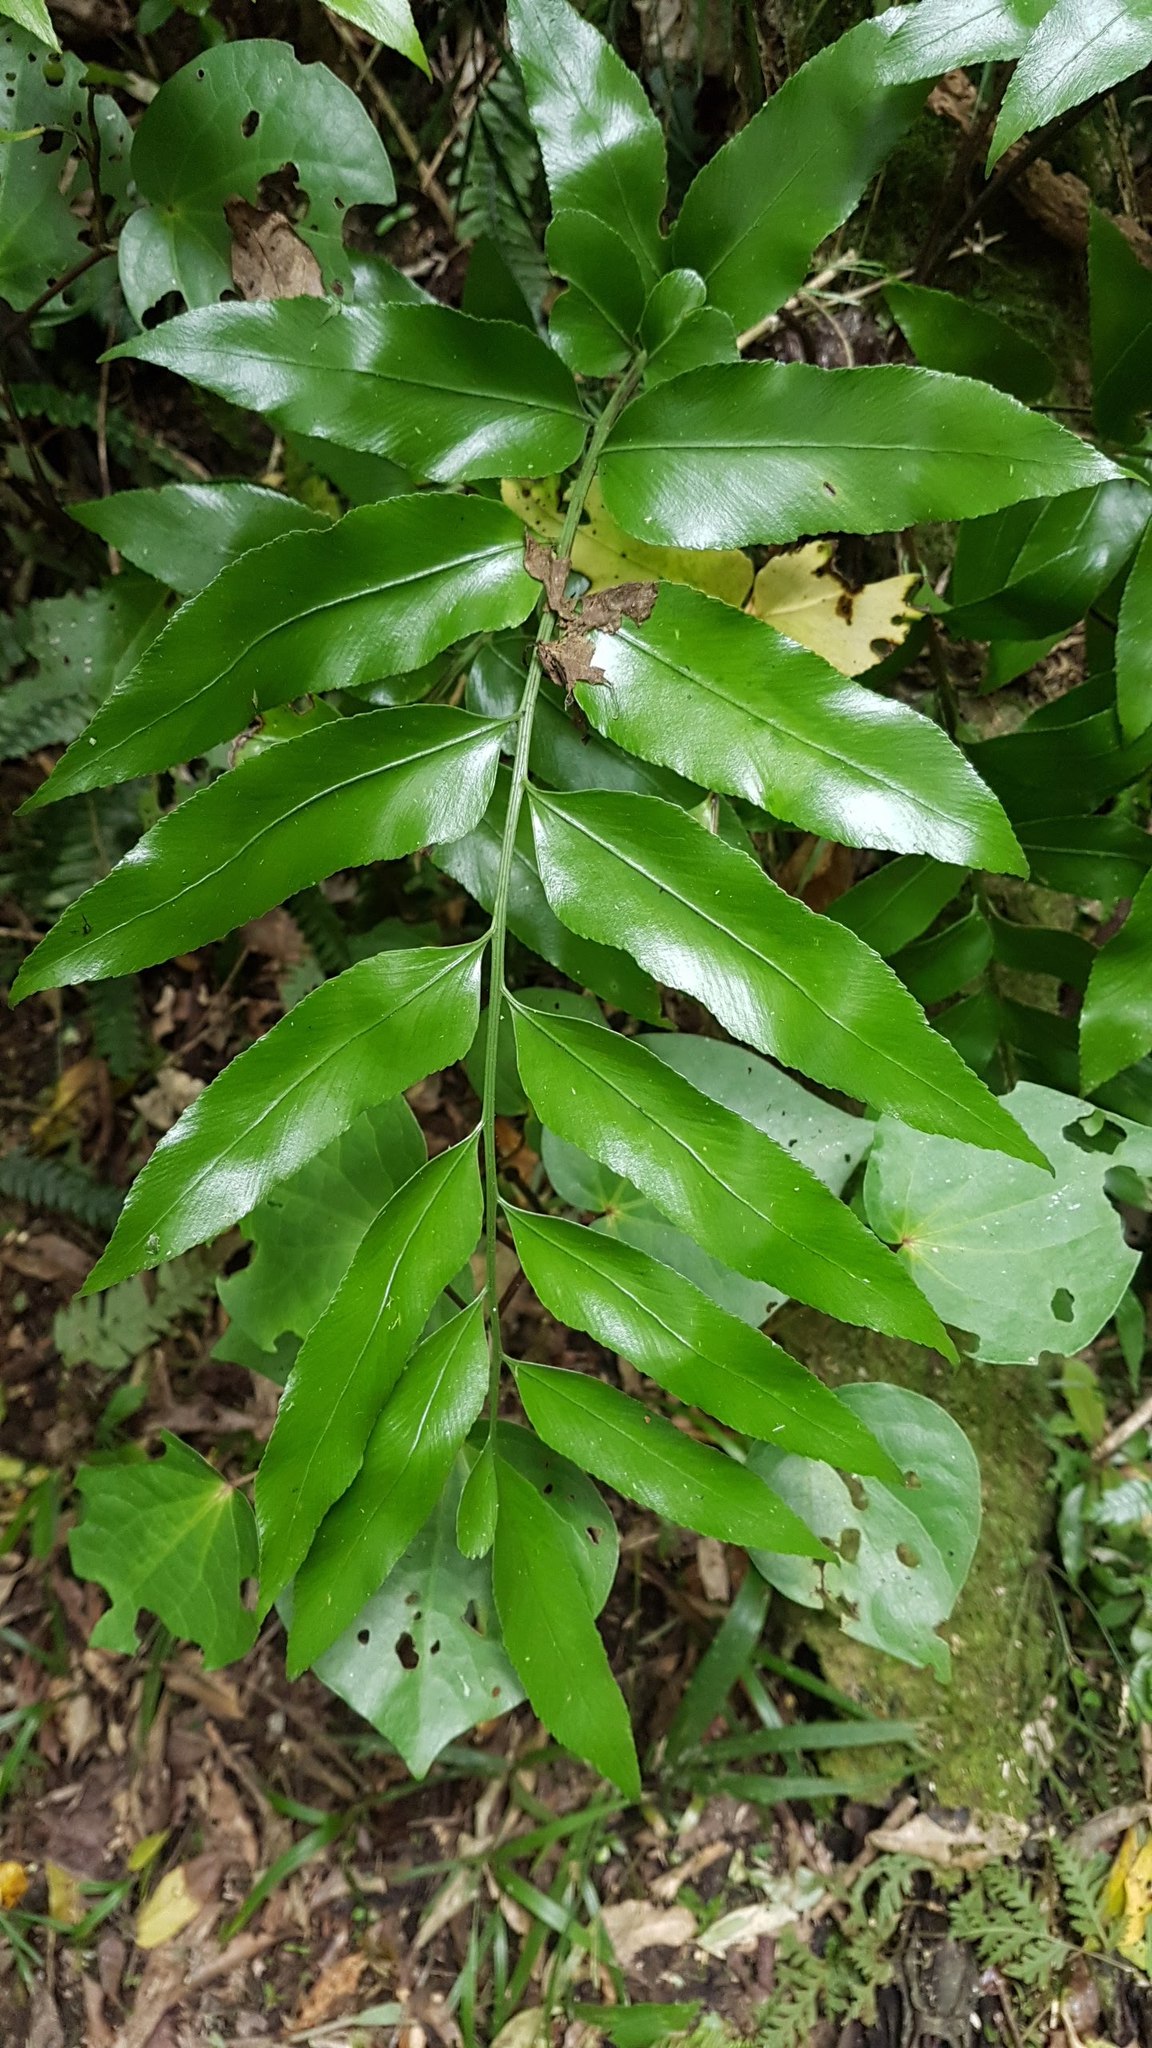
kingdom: Plantae
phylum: Tracheophyta
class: Polypodiopsida
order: Polypodiales
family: Aspleniaceae
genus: Asplenium
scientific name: Asplenium oblongifolium
